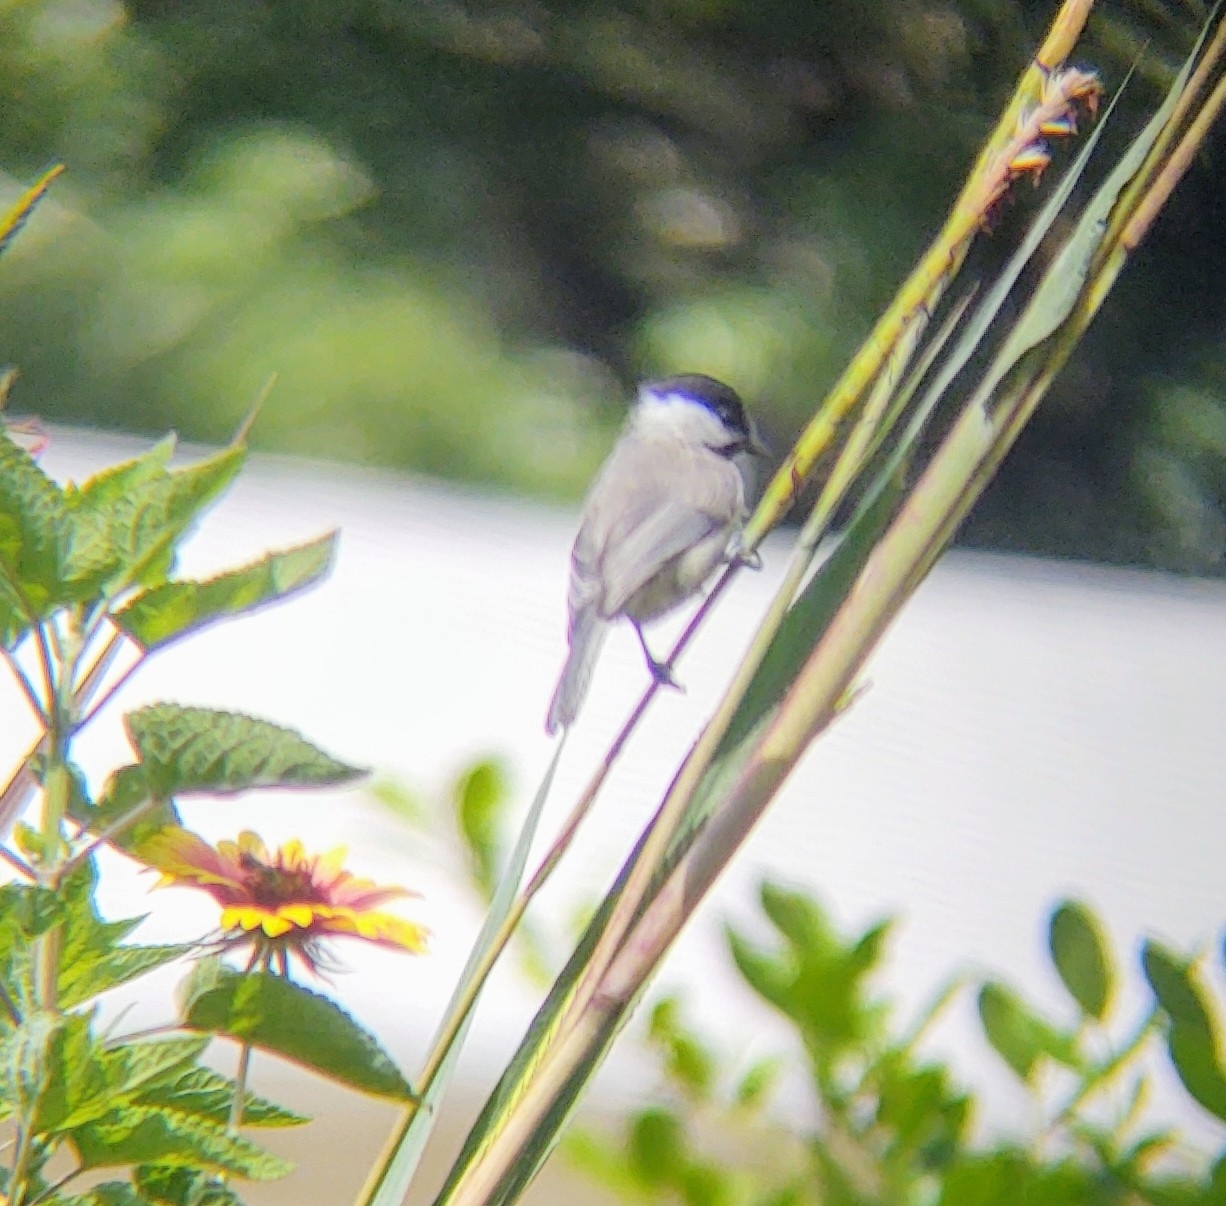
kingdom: Animalia
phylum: Chordata
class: Aves
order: Passeriformes
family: Paridae
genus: Poecile
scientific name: Poecile carolinensis
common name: Carolina chickadee
